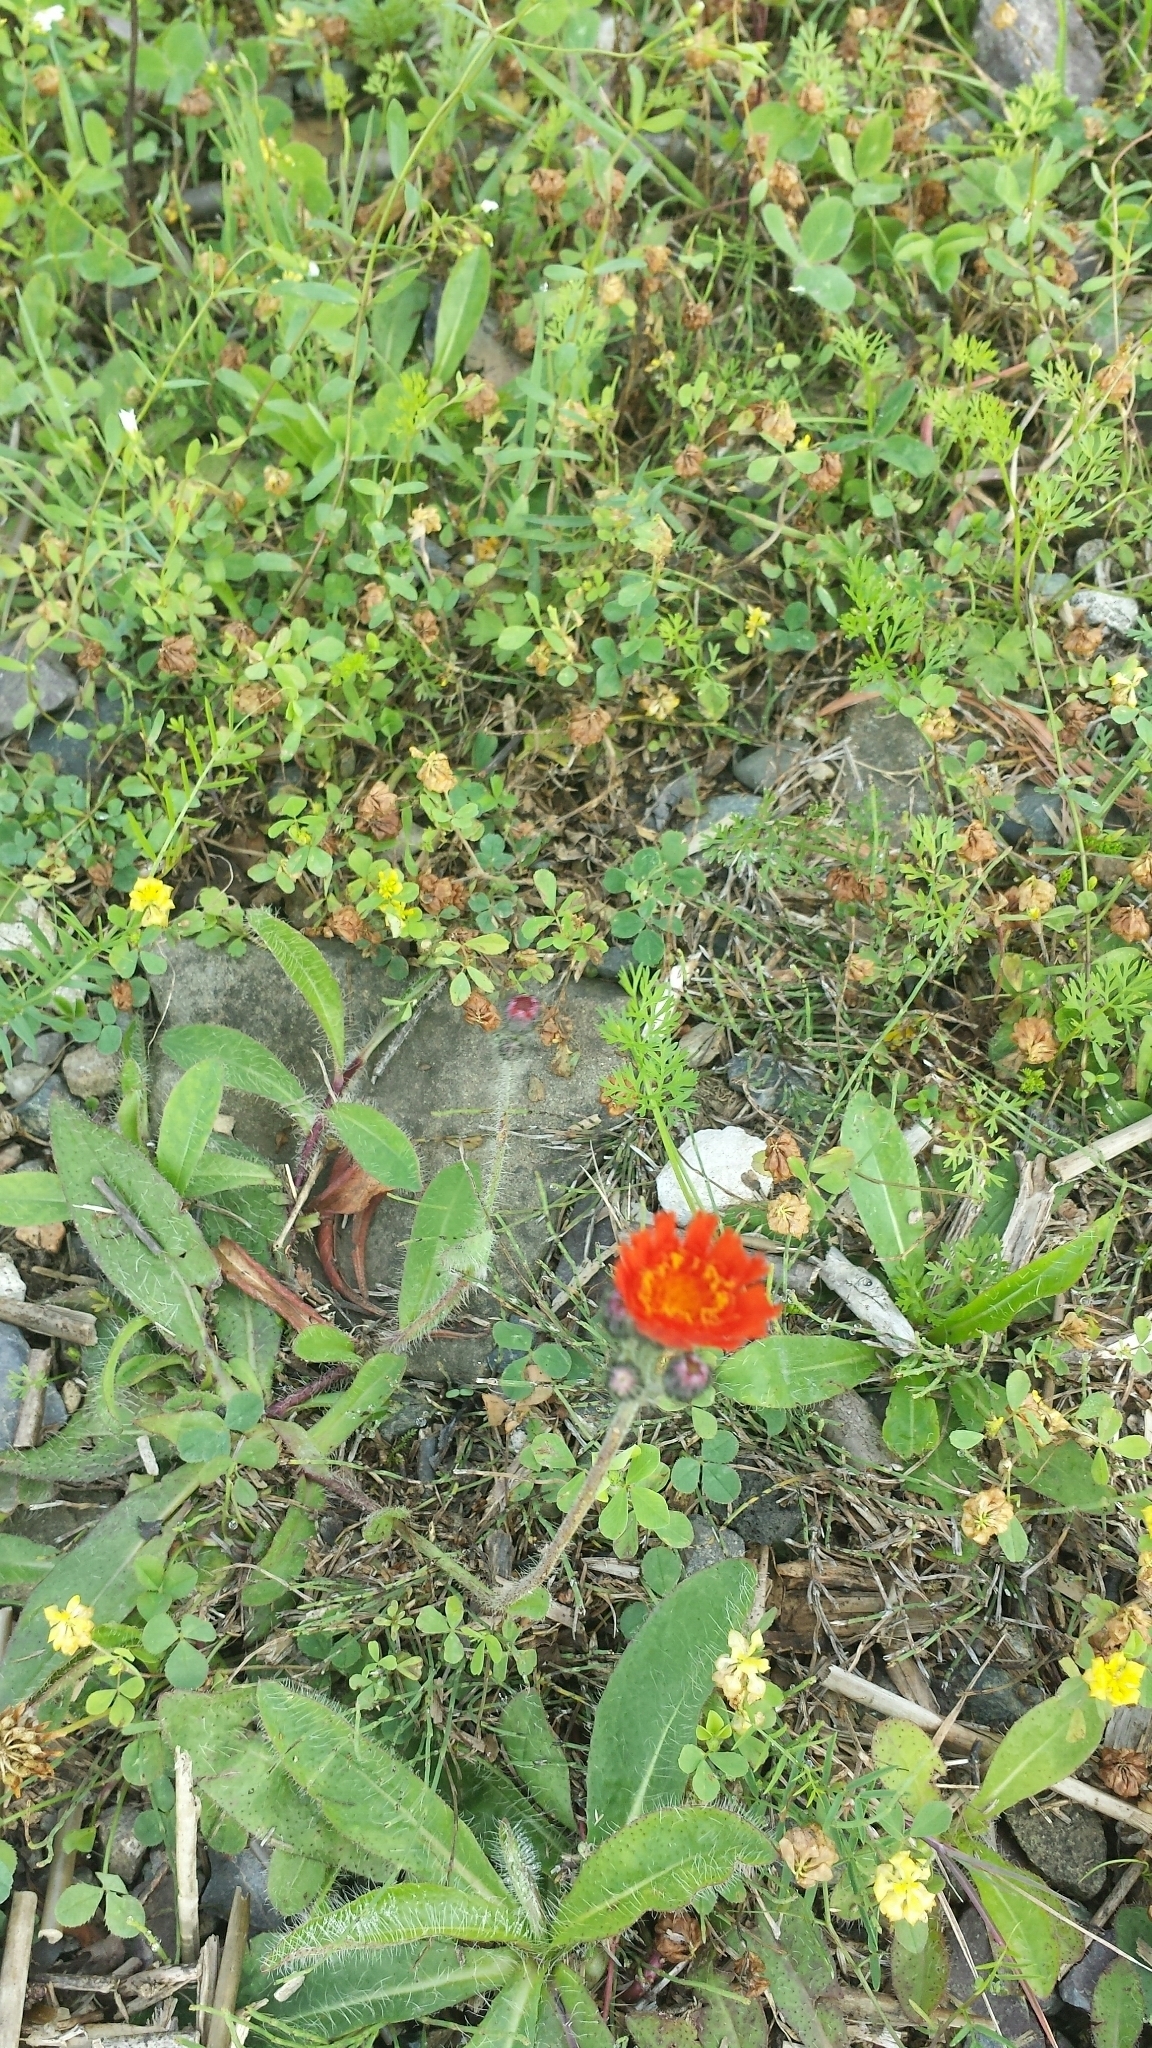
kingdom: Plantae
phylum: Tracheophyta
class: Magnoliopsida
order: Asterales
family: Asteraceae
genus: Pilosella
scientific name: Pilosella aurantiaca
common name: Fox-and-cubs
